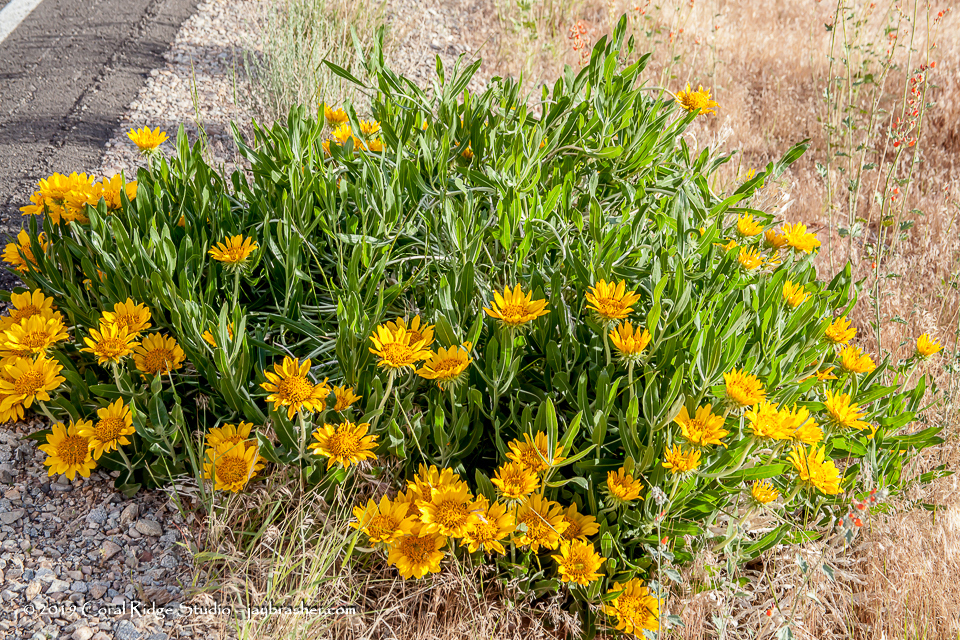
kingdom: Plantae
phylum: Tracheophyta
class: Magnoliopsida
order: Asterales
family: Asteraceae
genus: Scabrethia
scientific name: Scabrethia scabra
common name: Rough mules's-ears
